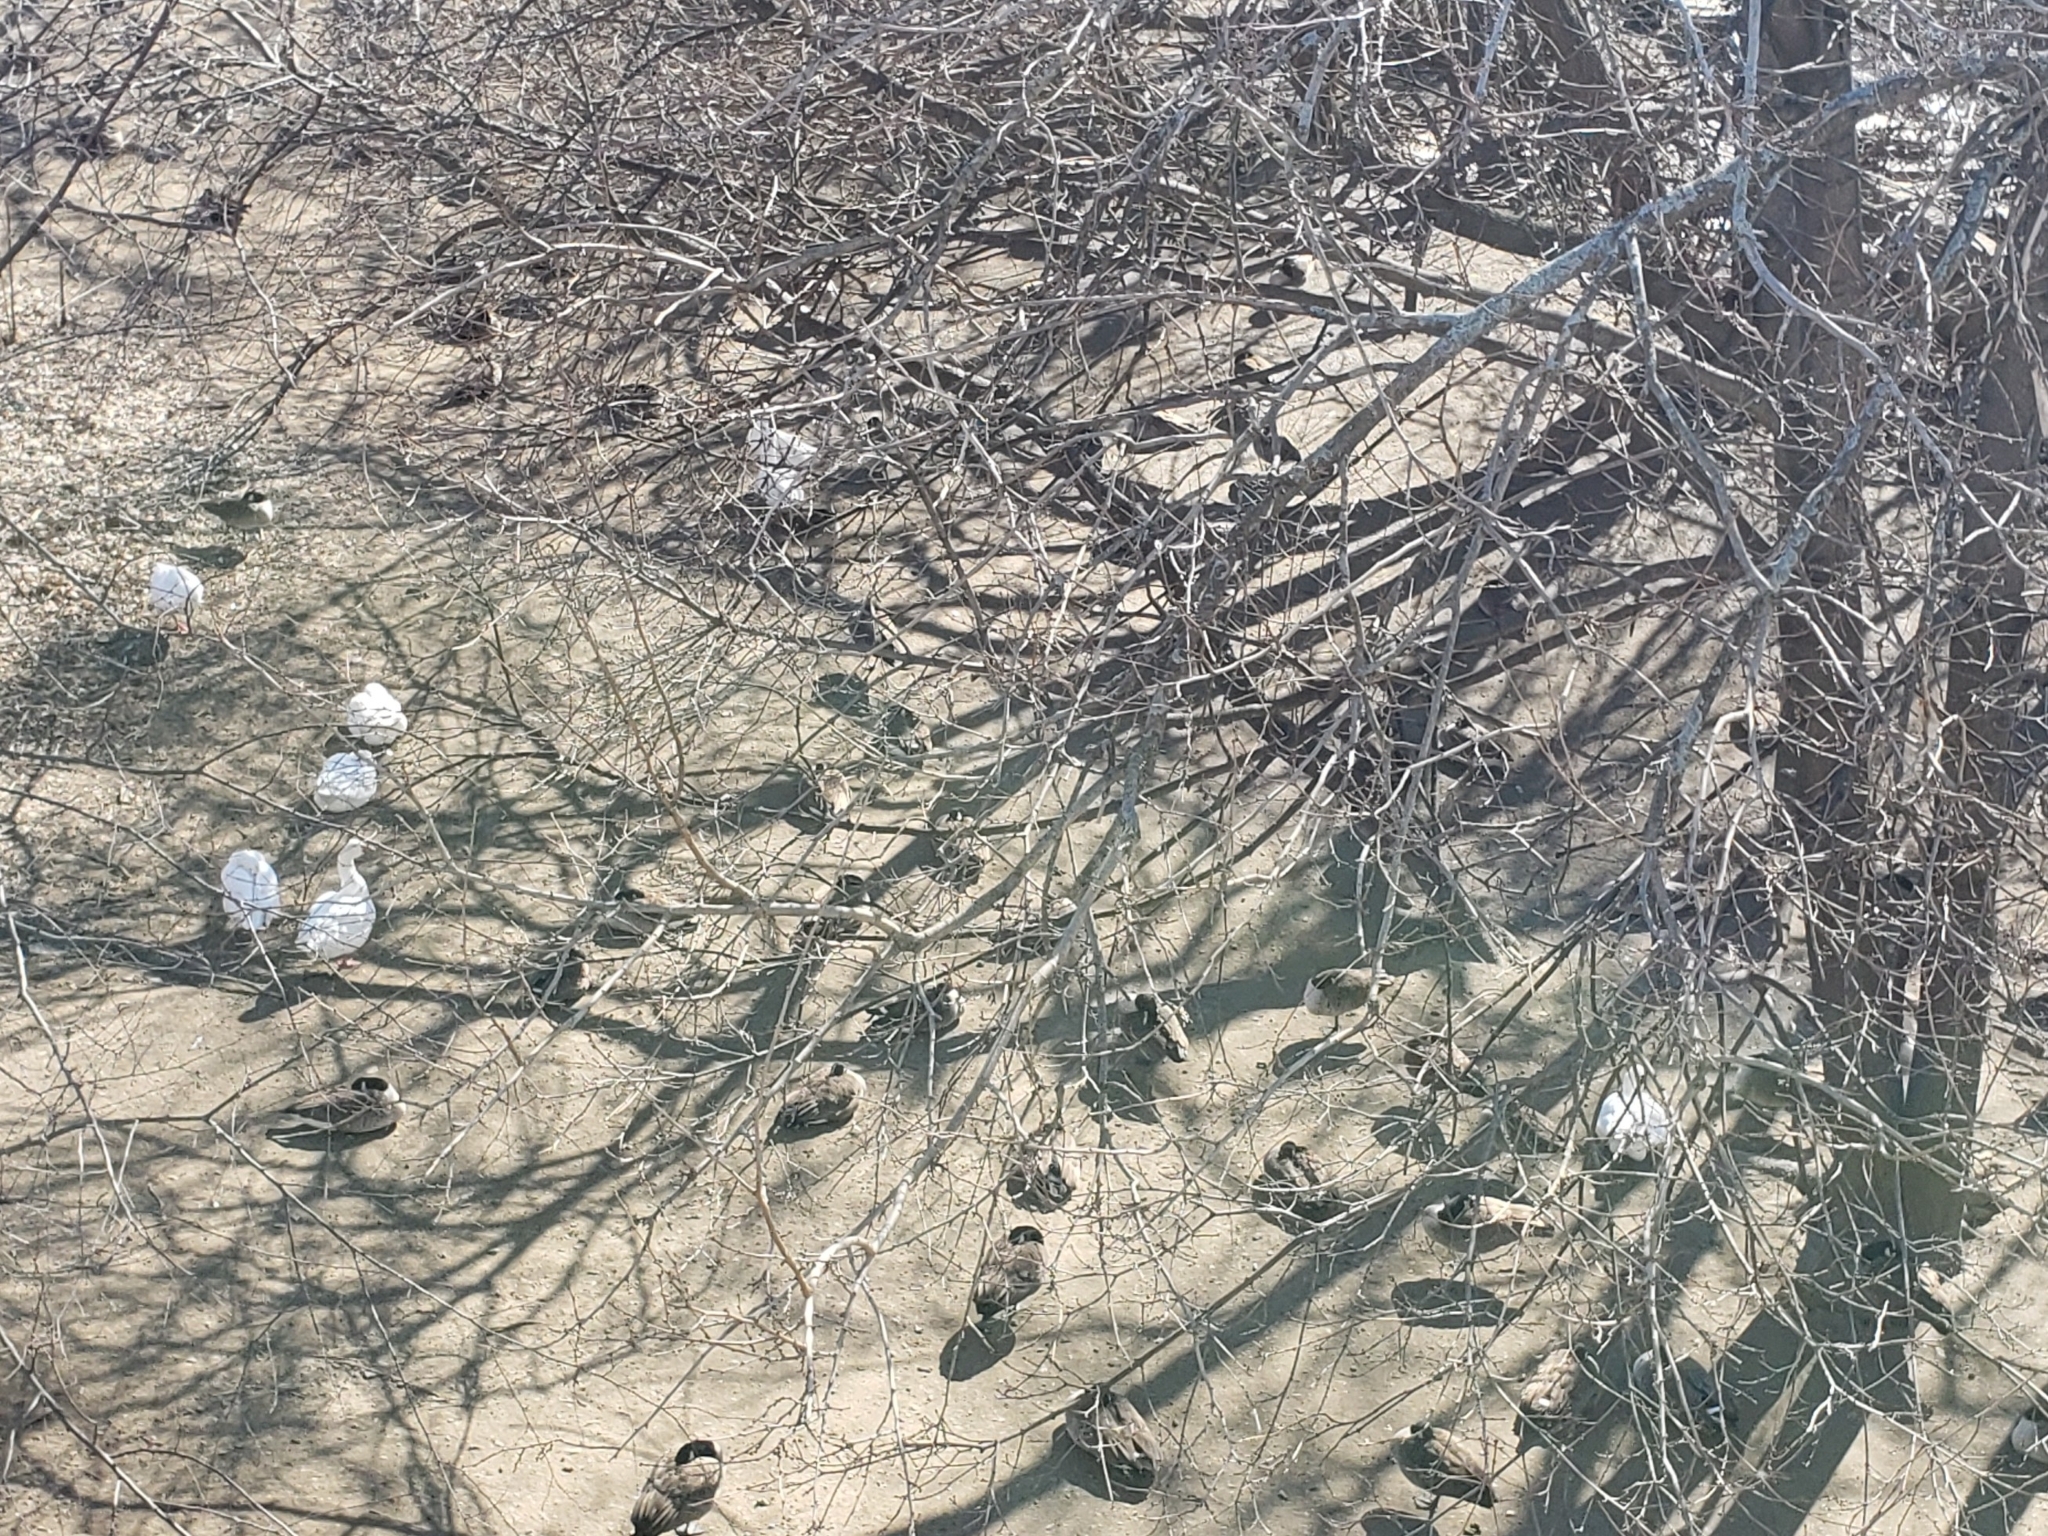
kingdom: Animalia
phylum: Chordata
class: Aves
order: Anseriformes
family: Anatidae
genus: Anser
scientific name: Anser anser
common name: Greylag goose
